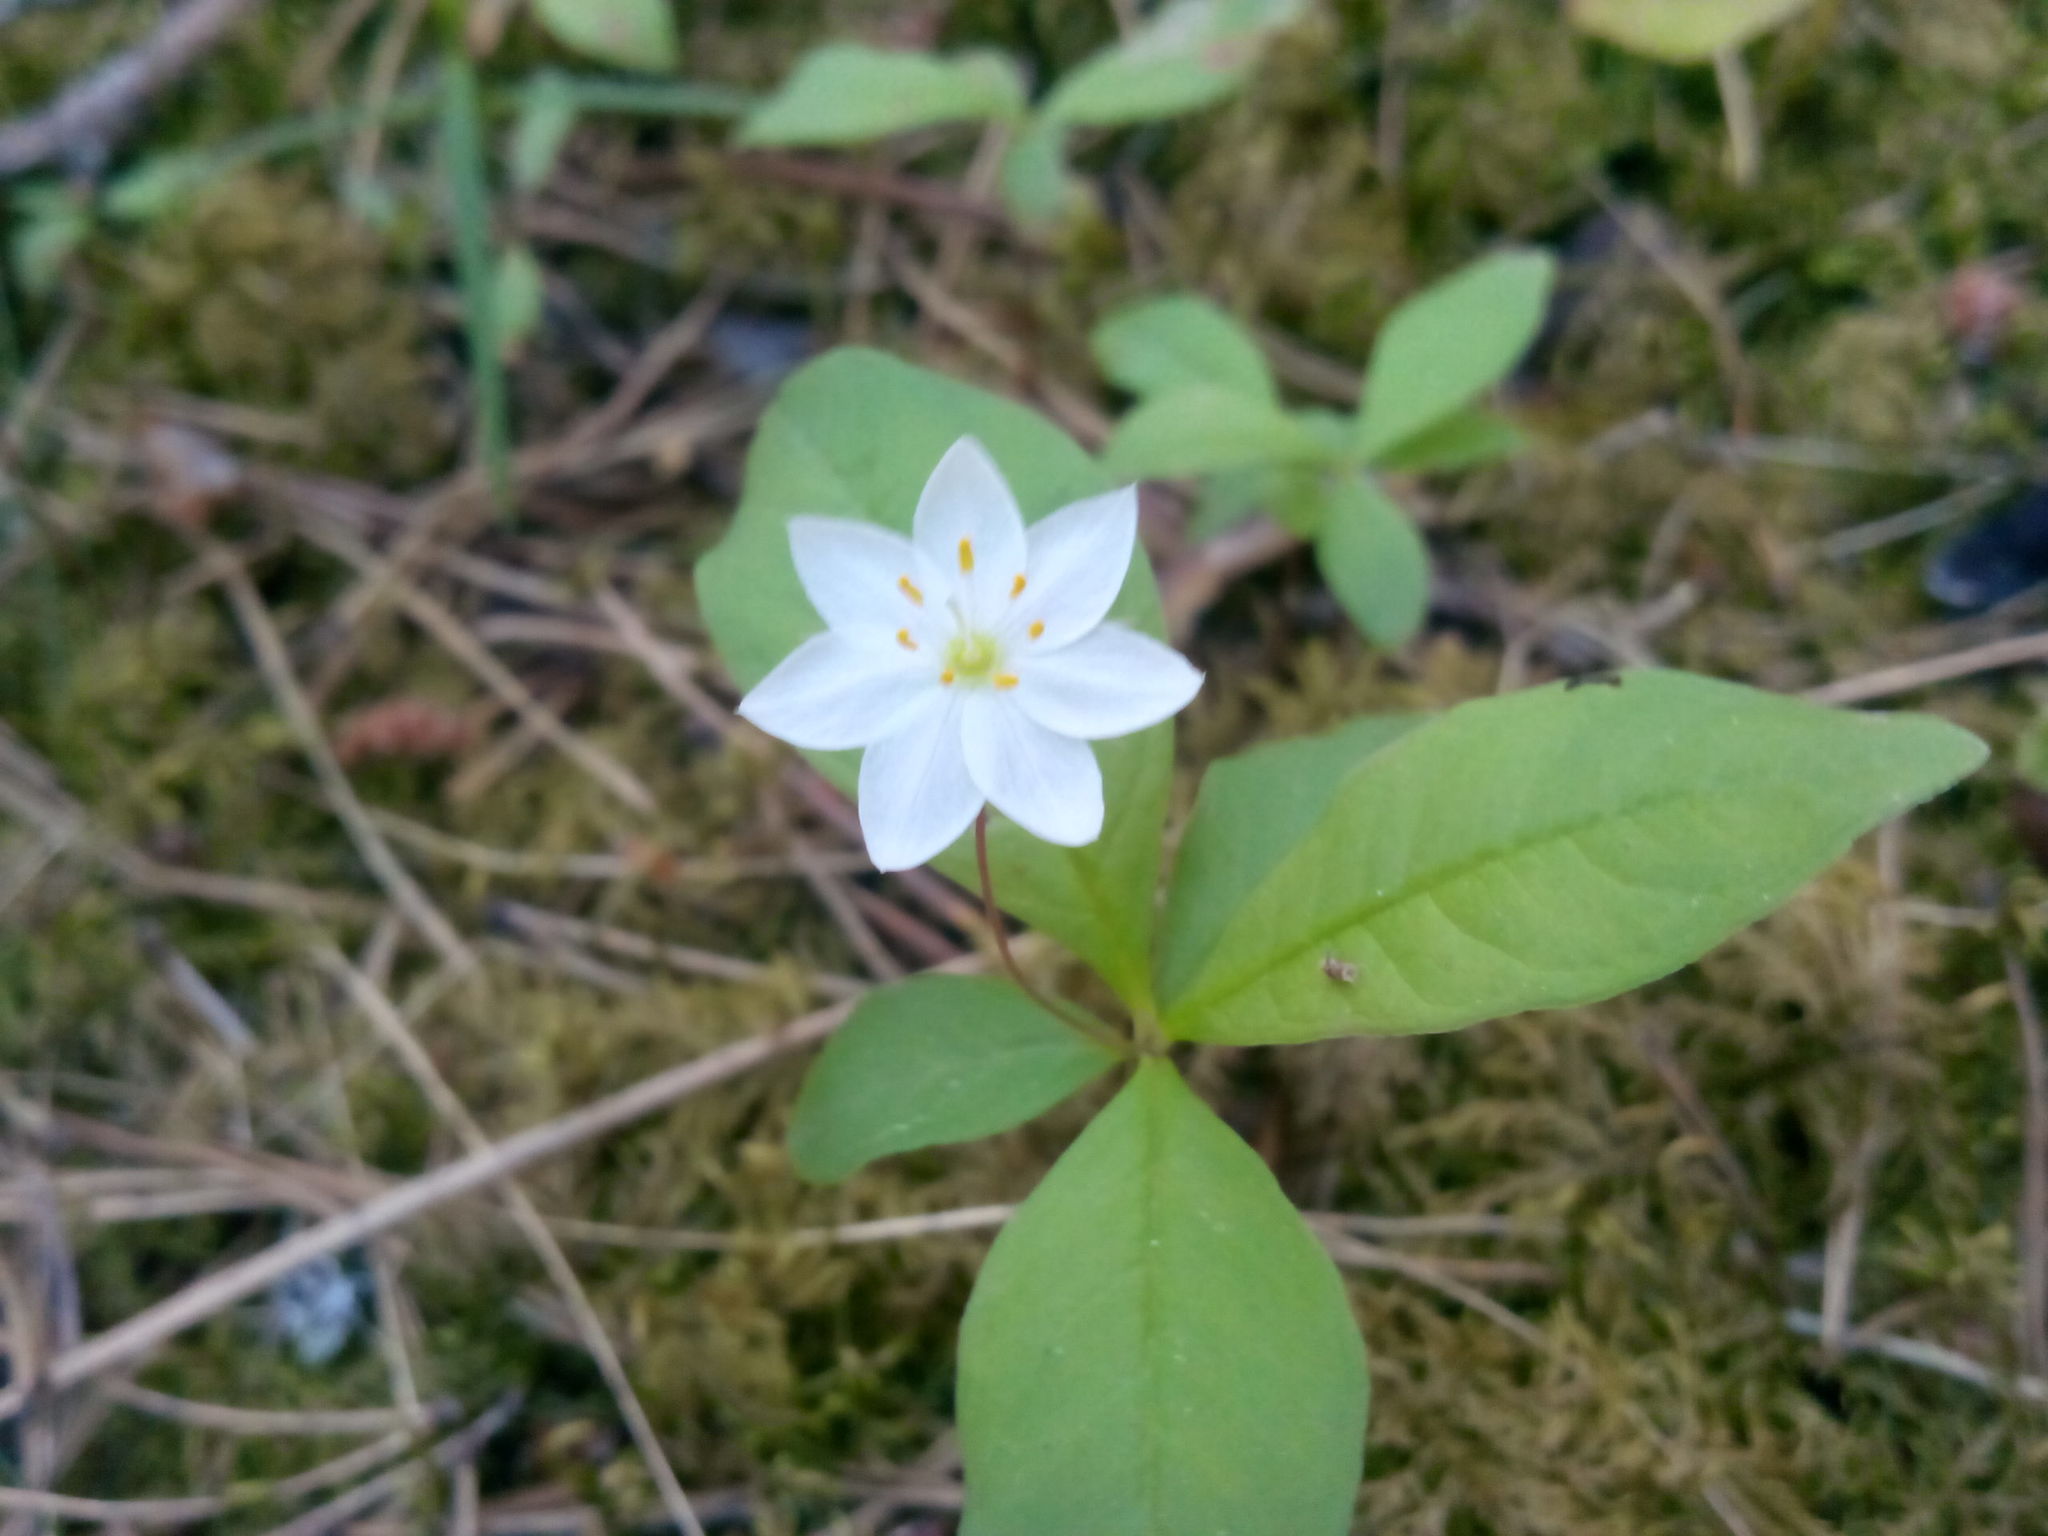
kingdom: Plantae
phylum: Tracheophyta
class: Magnoliopsida
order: Ericales
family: Primulaceae
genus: Lysimachia
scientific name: Lysimachia europaea
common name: Arctic starflower
